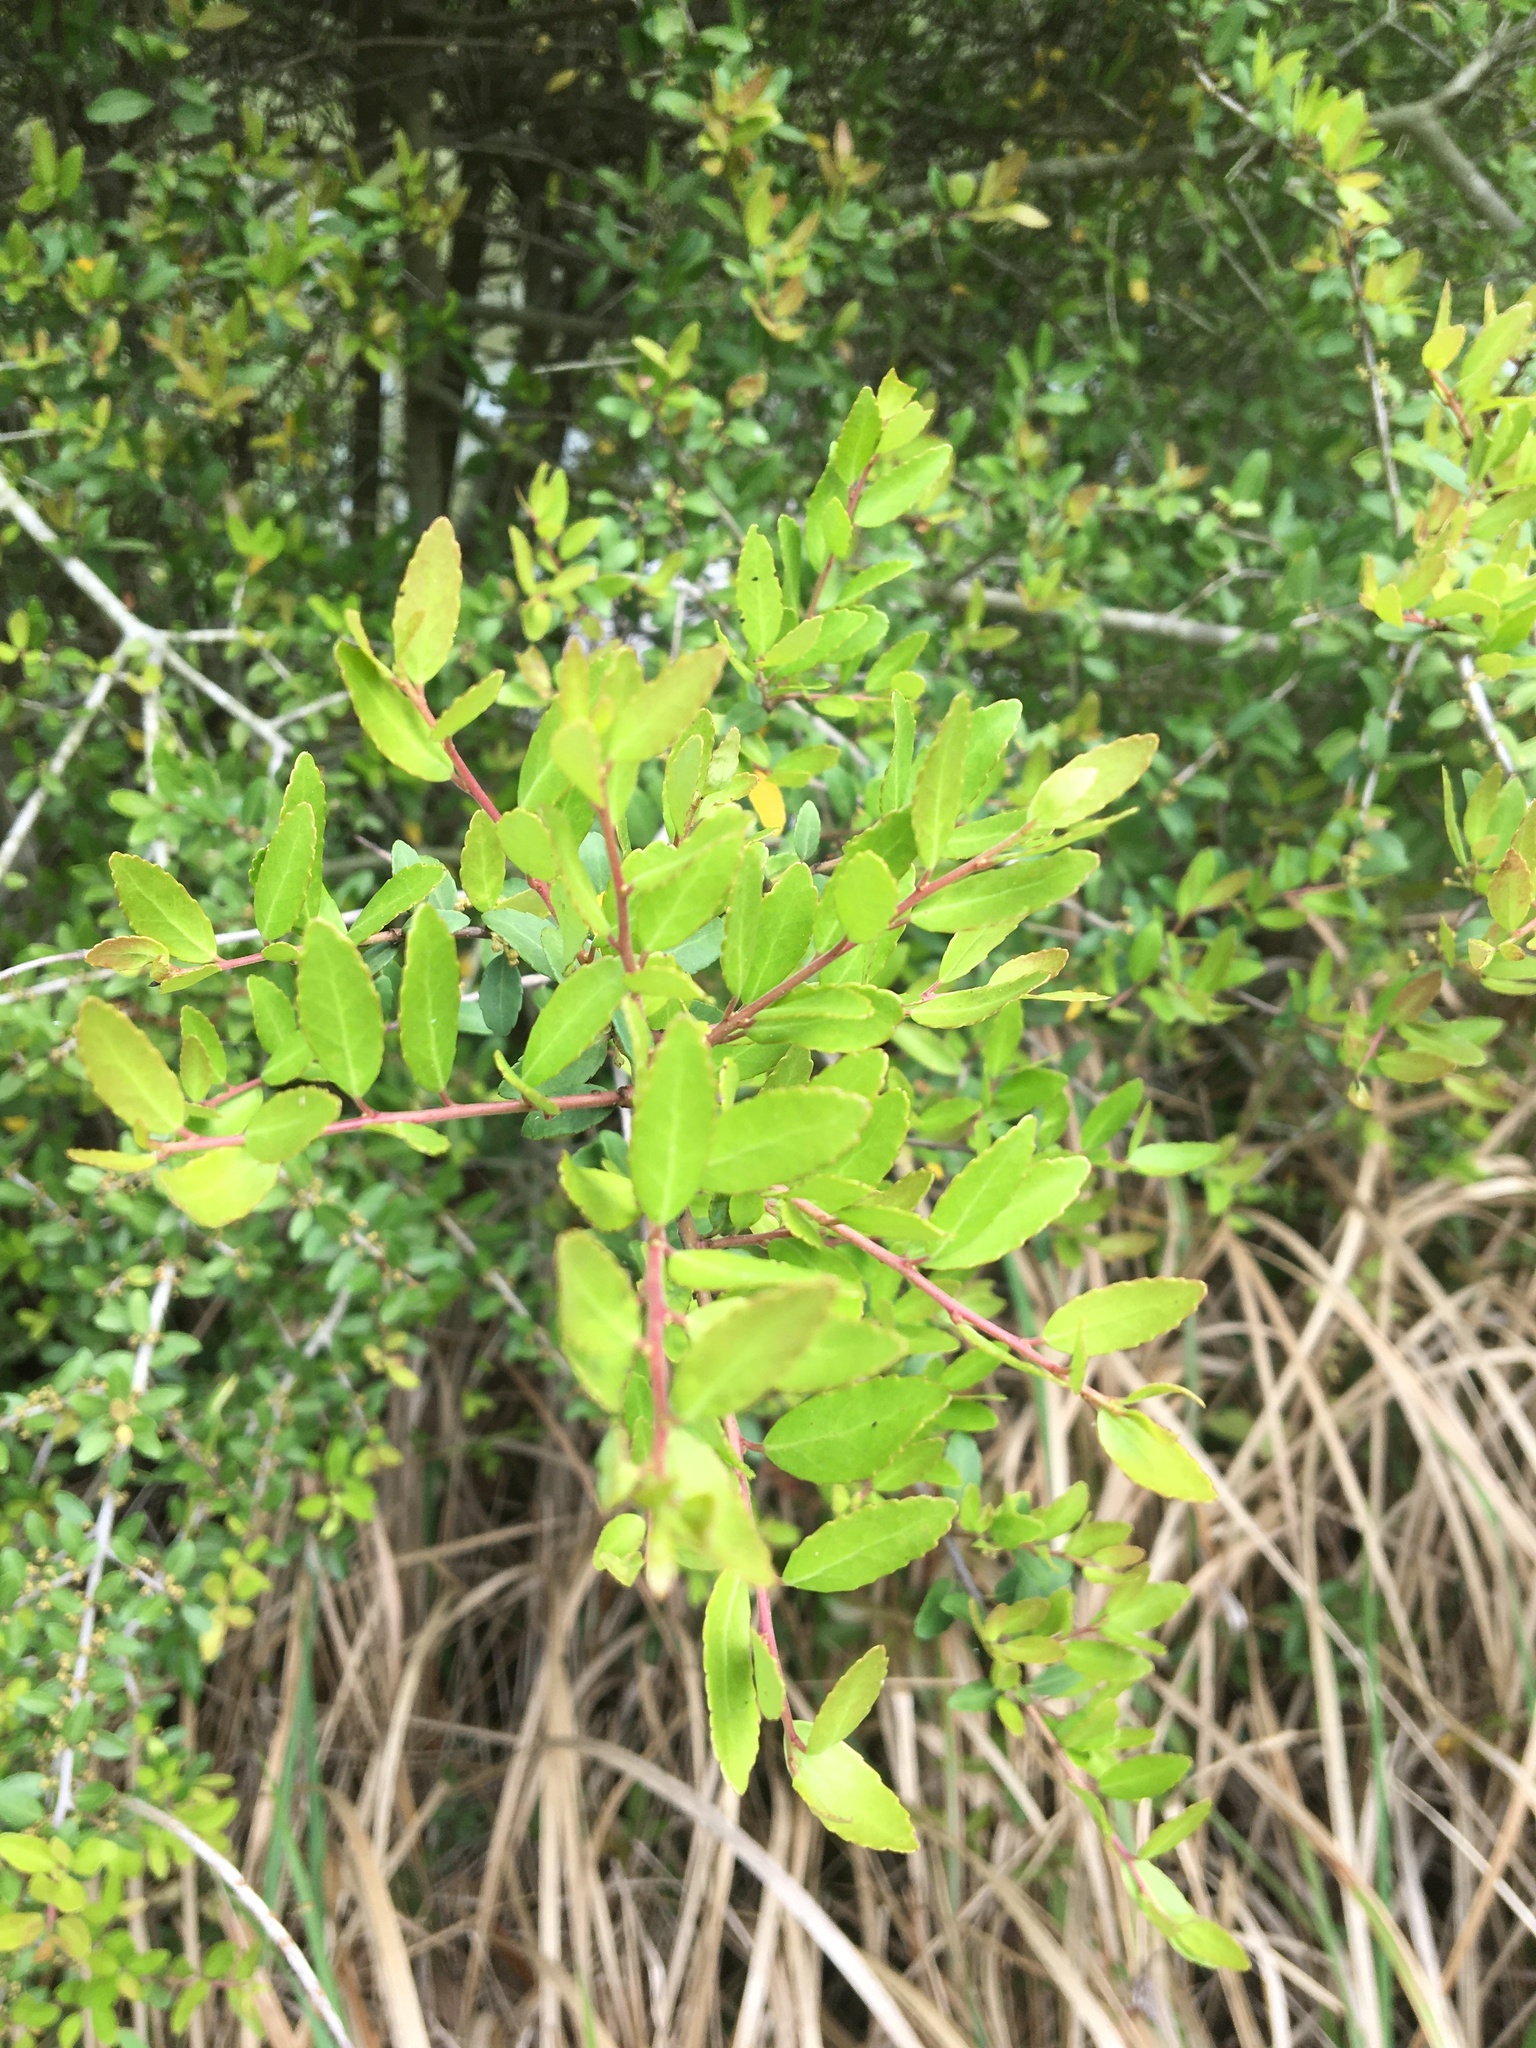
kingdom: Plantae
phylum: Tracheophyta
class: Magnoliopsida
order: Aquifoliales
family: Aquifoliaceae
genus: Ilex
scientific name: Ilex vomitoria
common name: Yaupon holly
